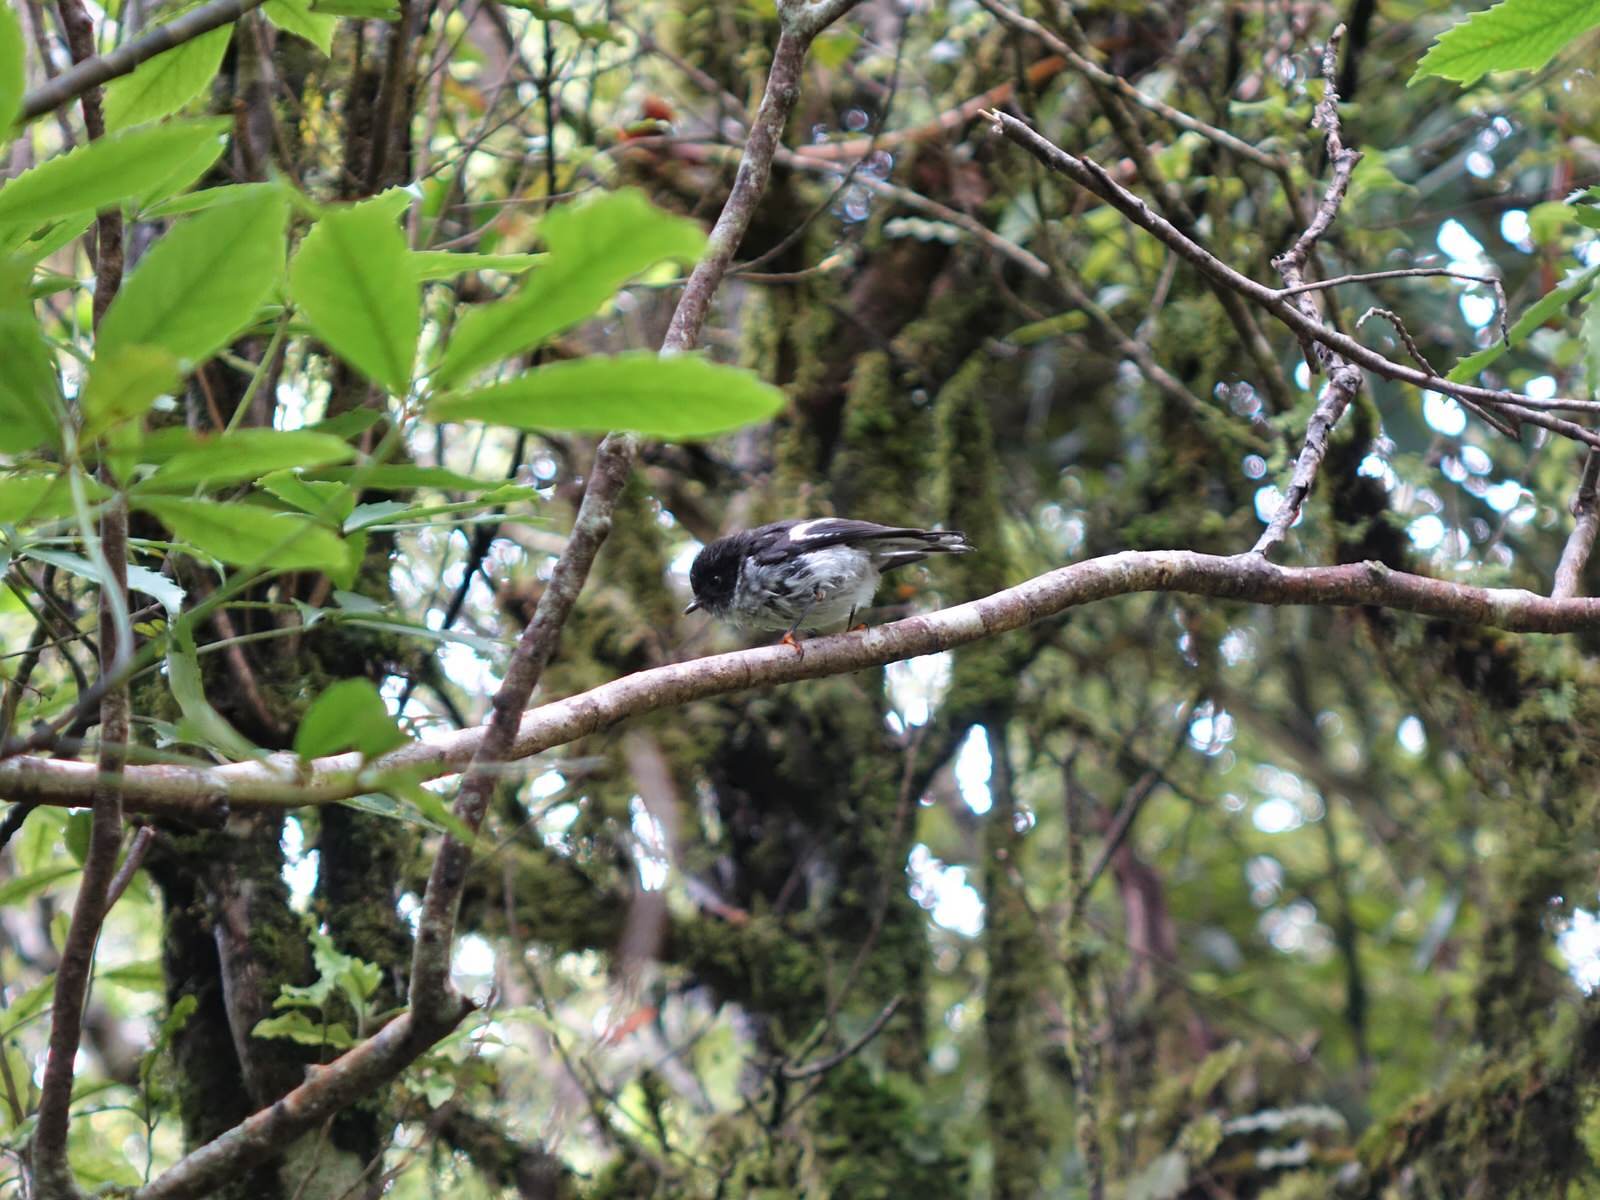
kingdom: Animalia
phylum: Chordata
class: Aves
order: Passeriformes
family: Petroicidae
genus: Petroica
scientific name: Petroica macrocephala
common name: Tomtit
